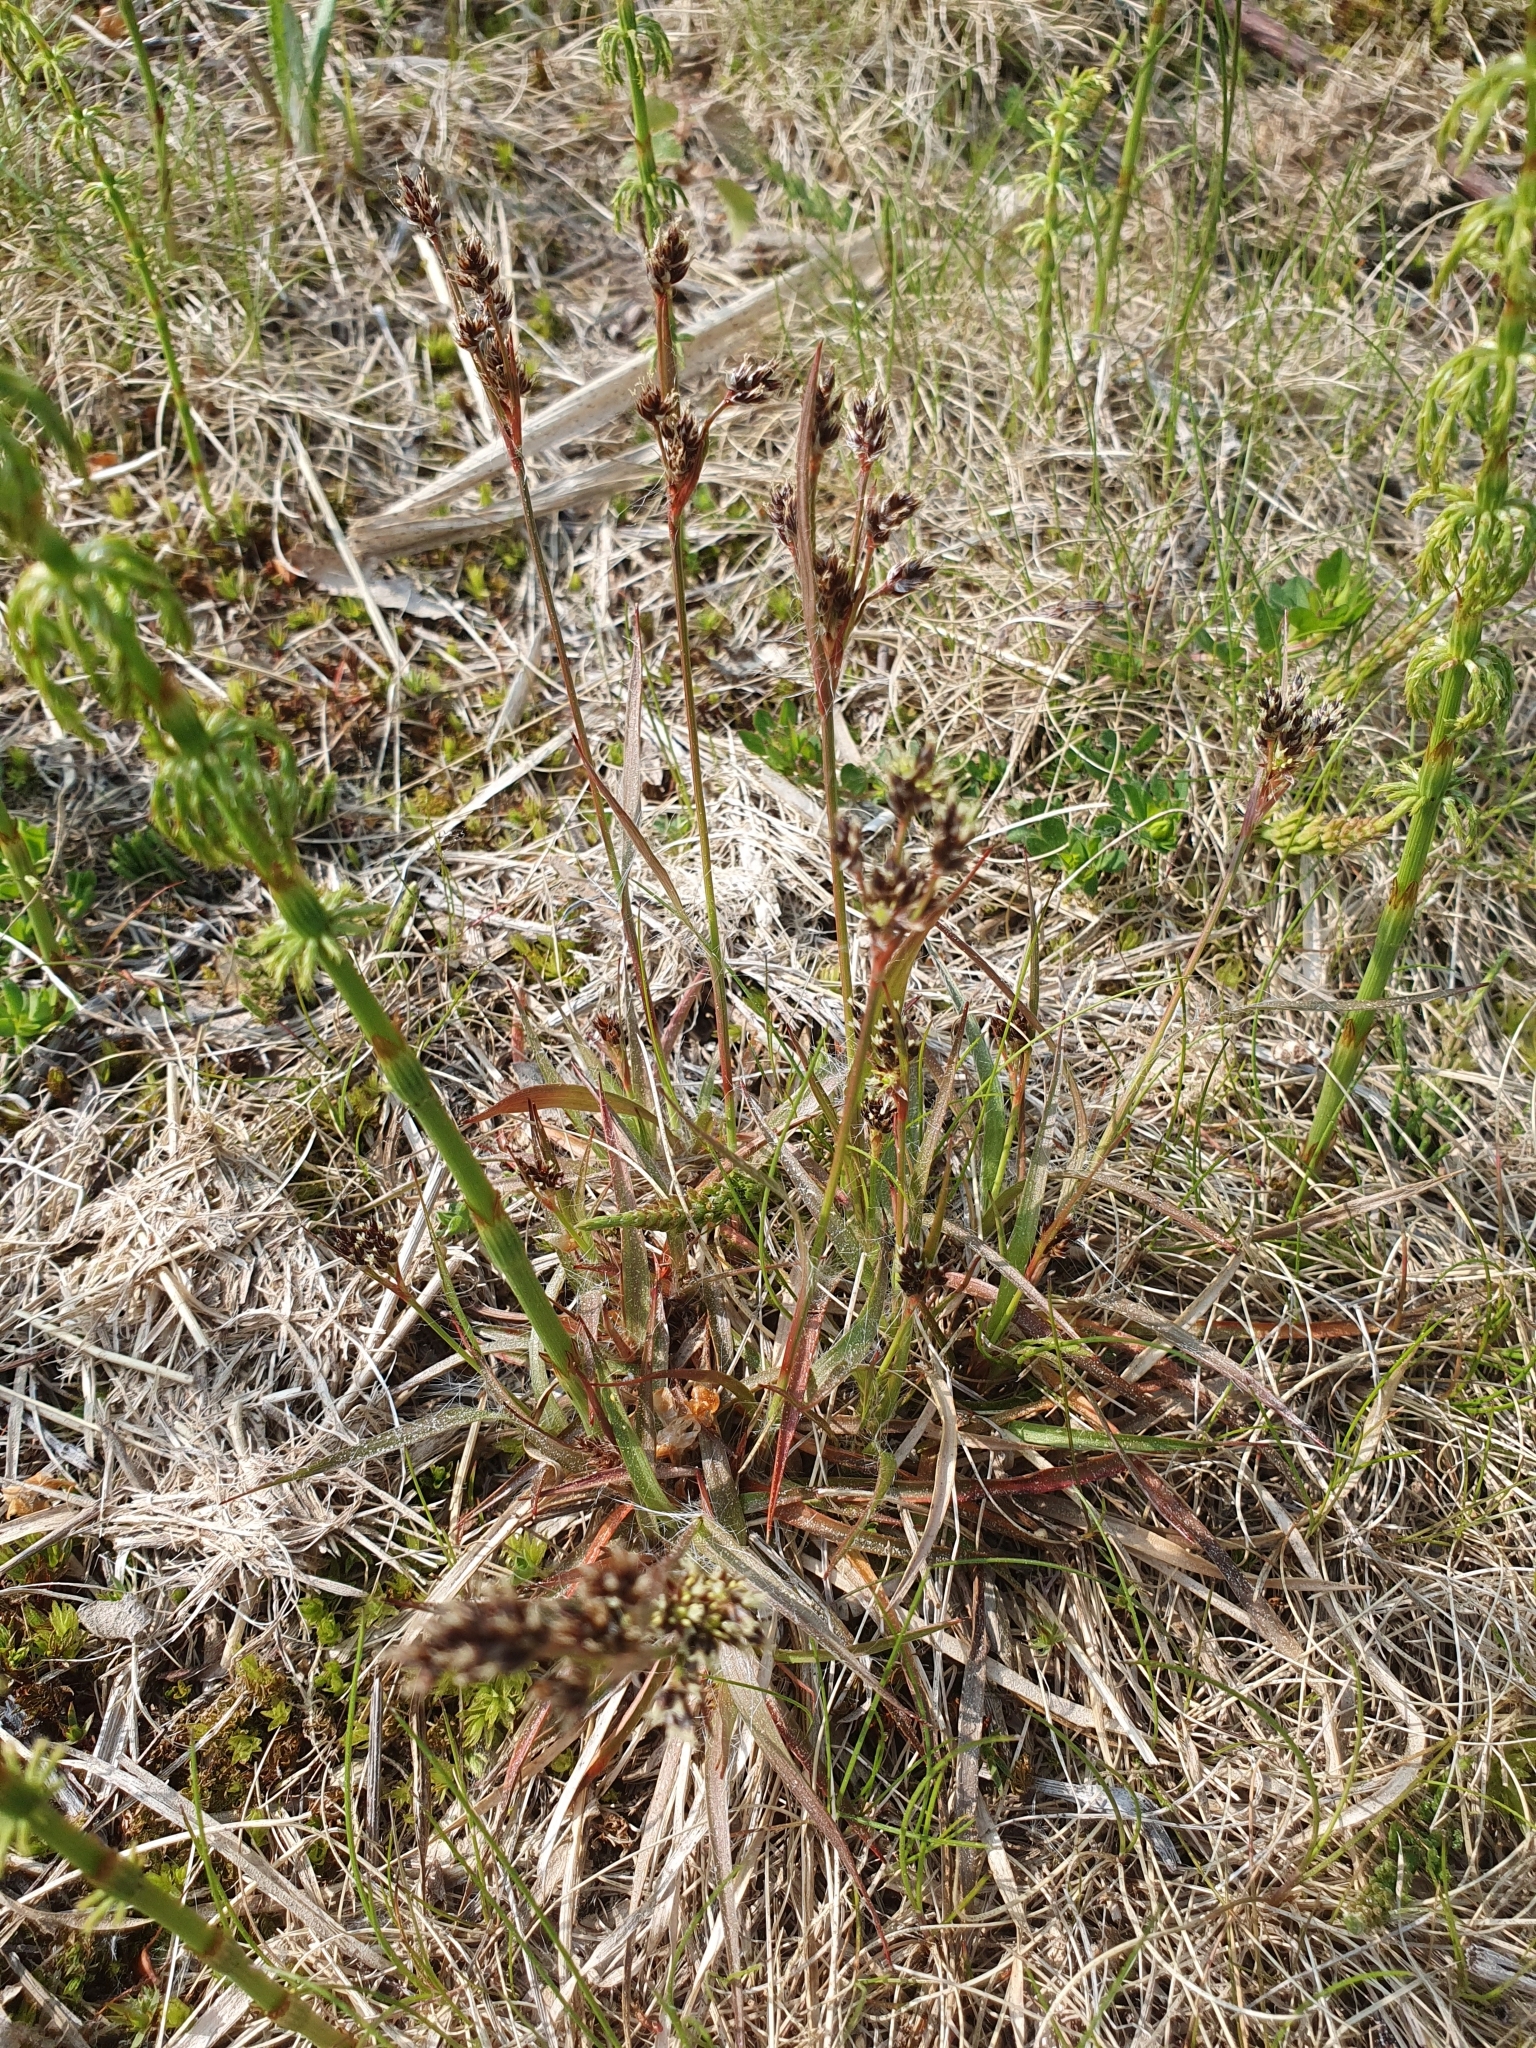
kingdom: Plantae
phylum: Tracheophyta
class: Liliopsida
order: Poales
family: Juncaceae
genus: Luzula
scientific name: Luzula campestris
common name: Field wood-rush
